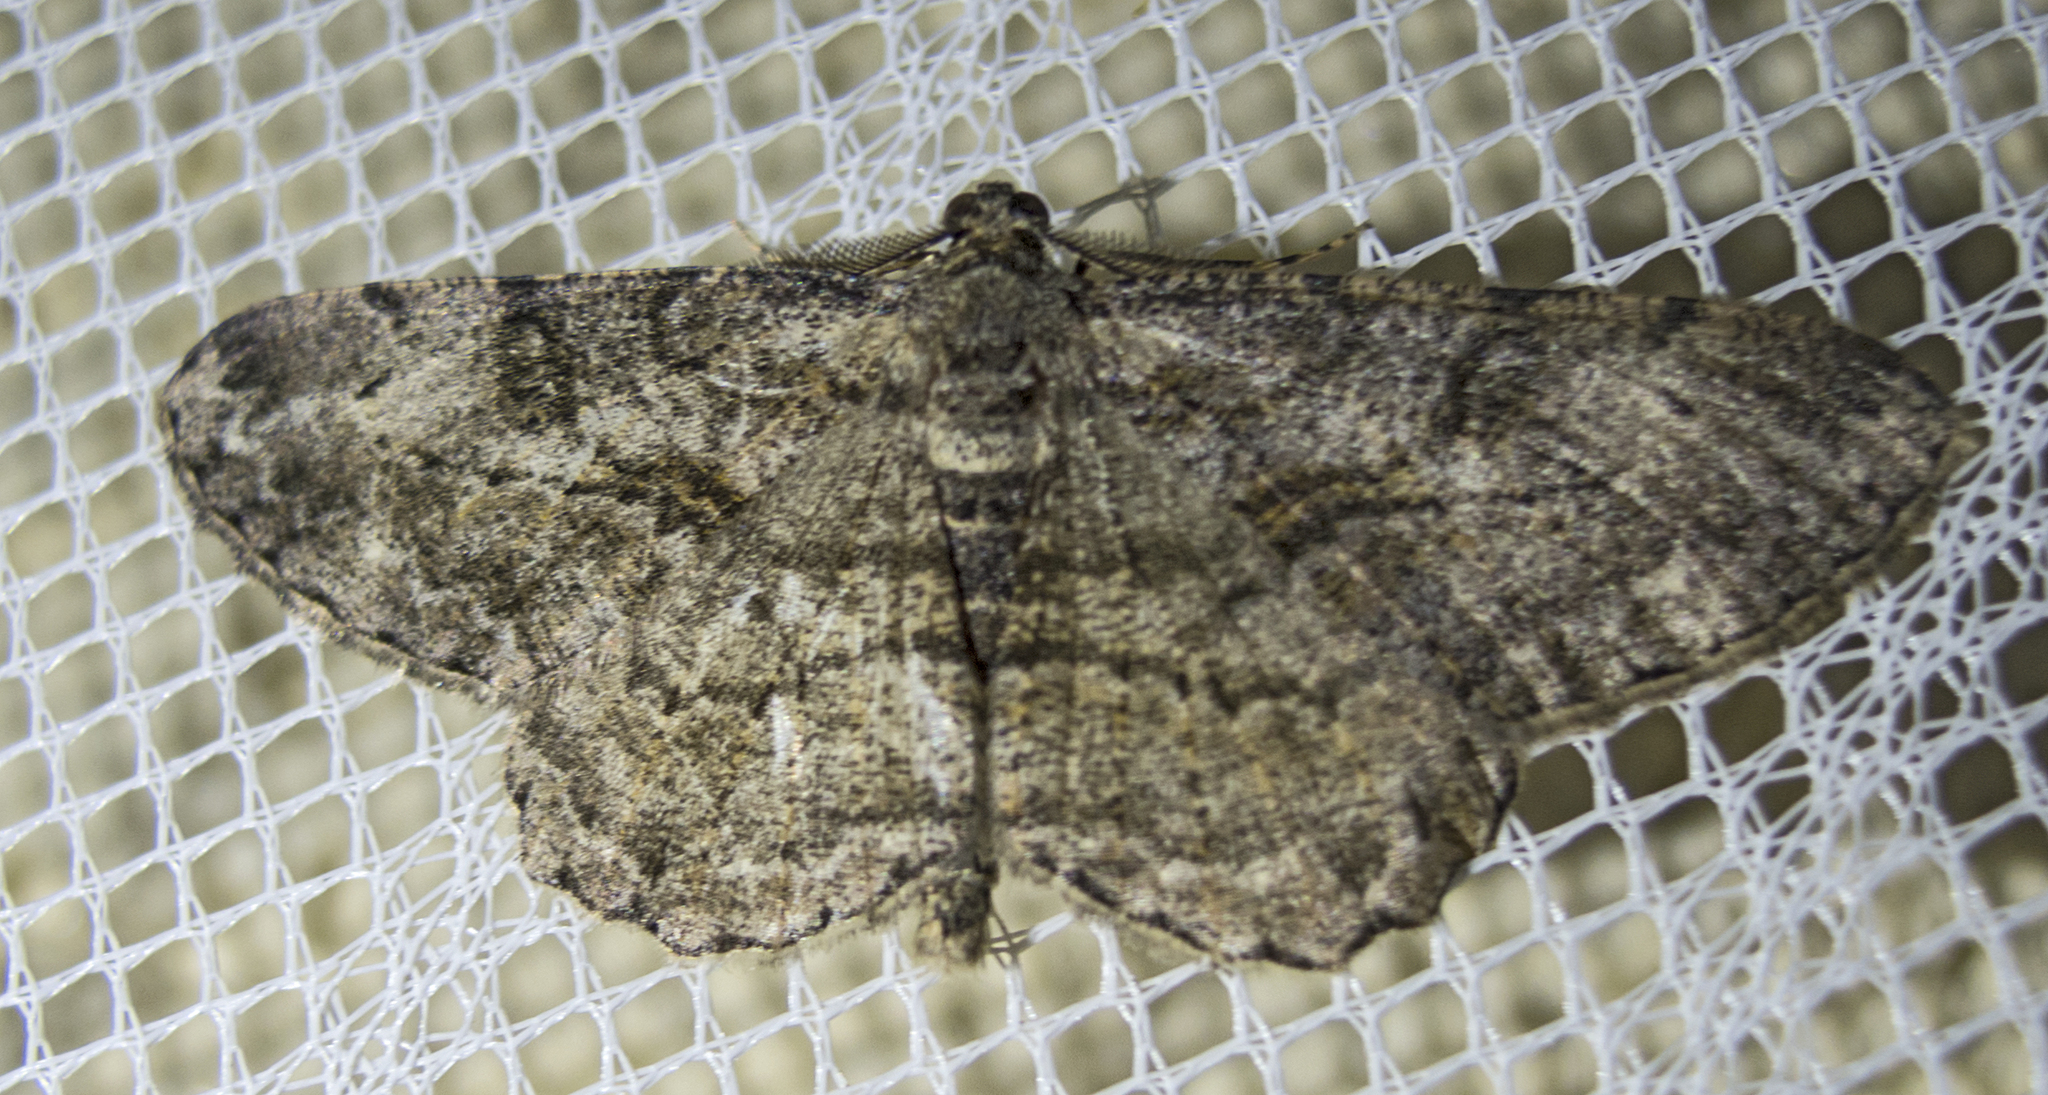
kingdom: Animalia
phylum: Arthropoda
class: Insecta
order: Lepidoptera
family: Geometridae
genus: Peribatodes
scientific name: Peribatodes rhomboidaria
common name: Willow beauty
